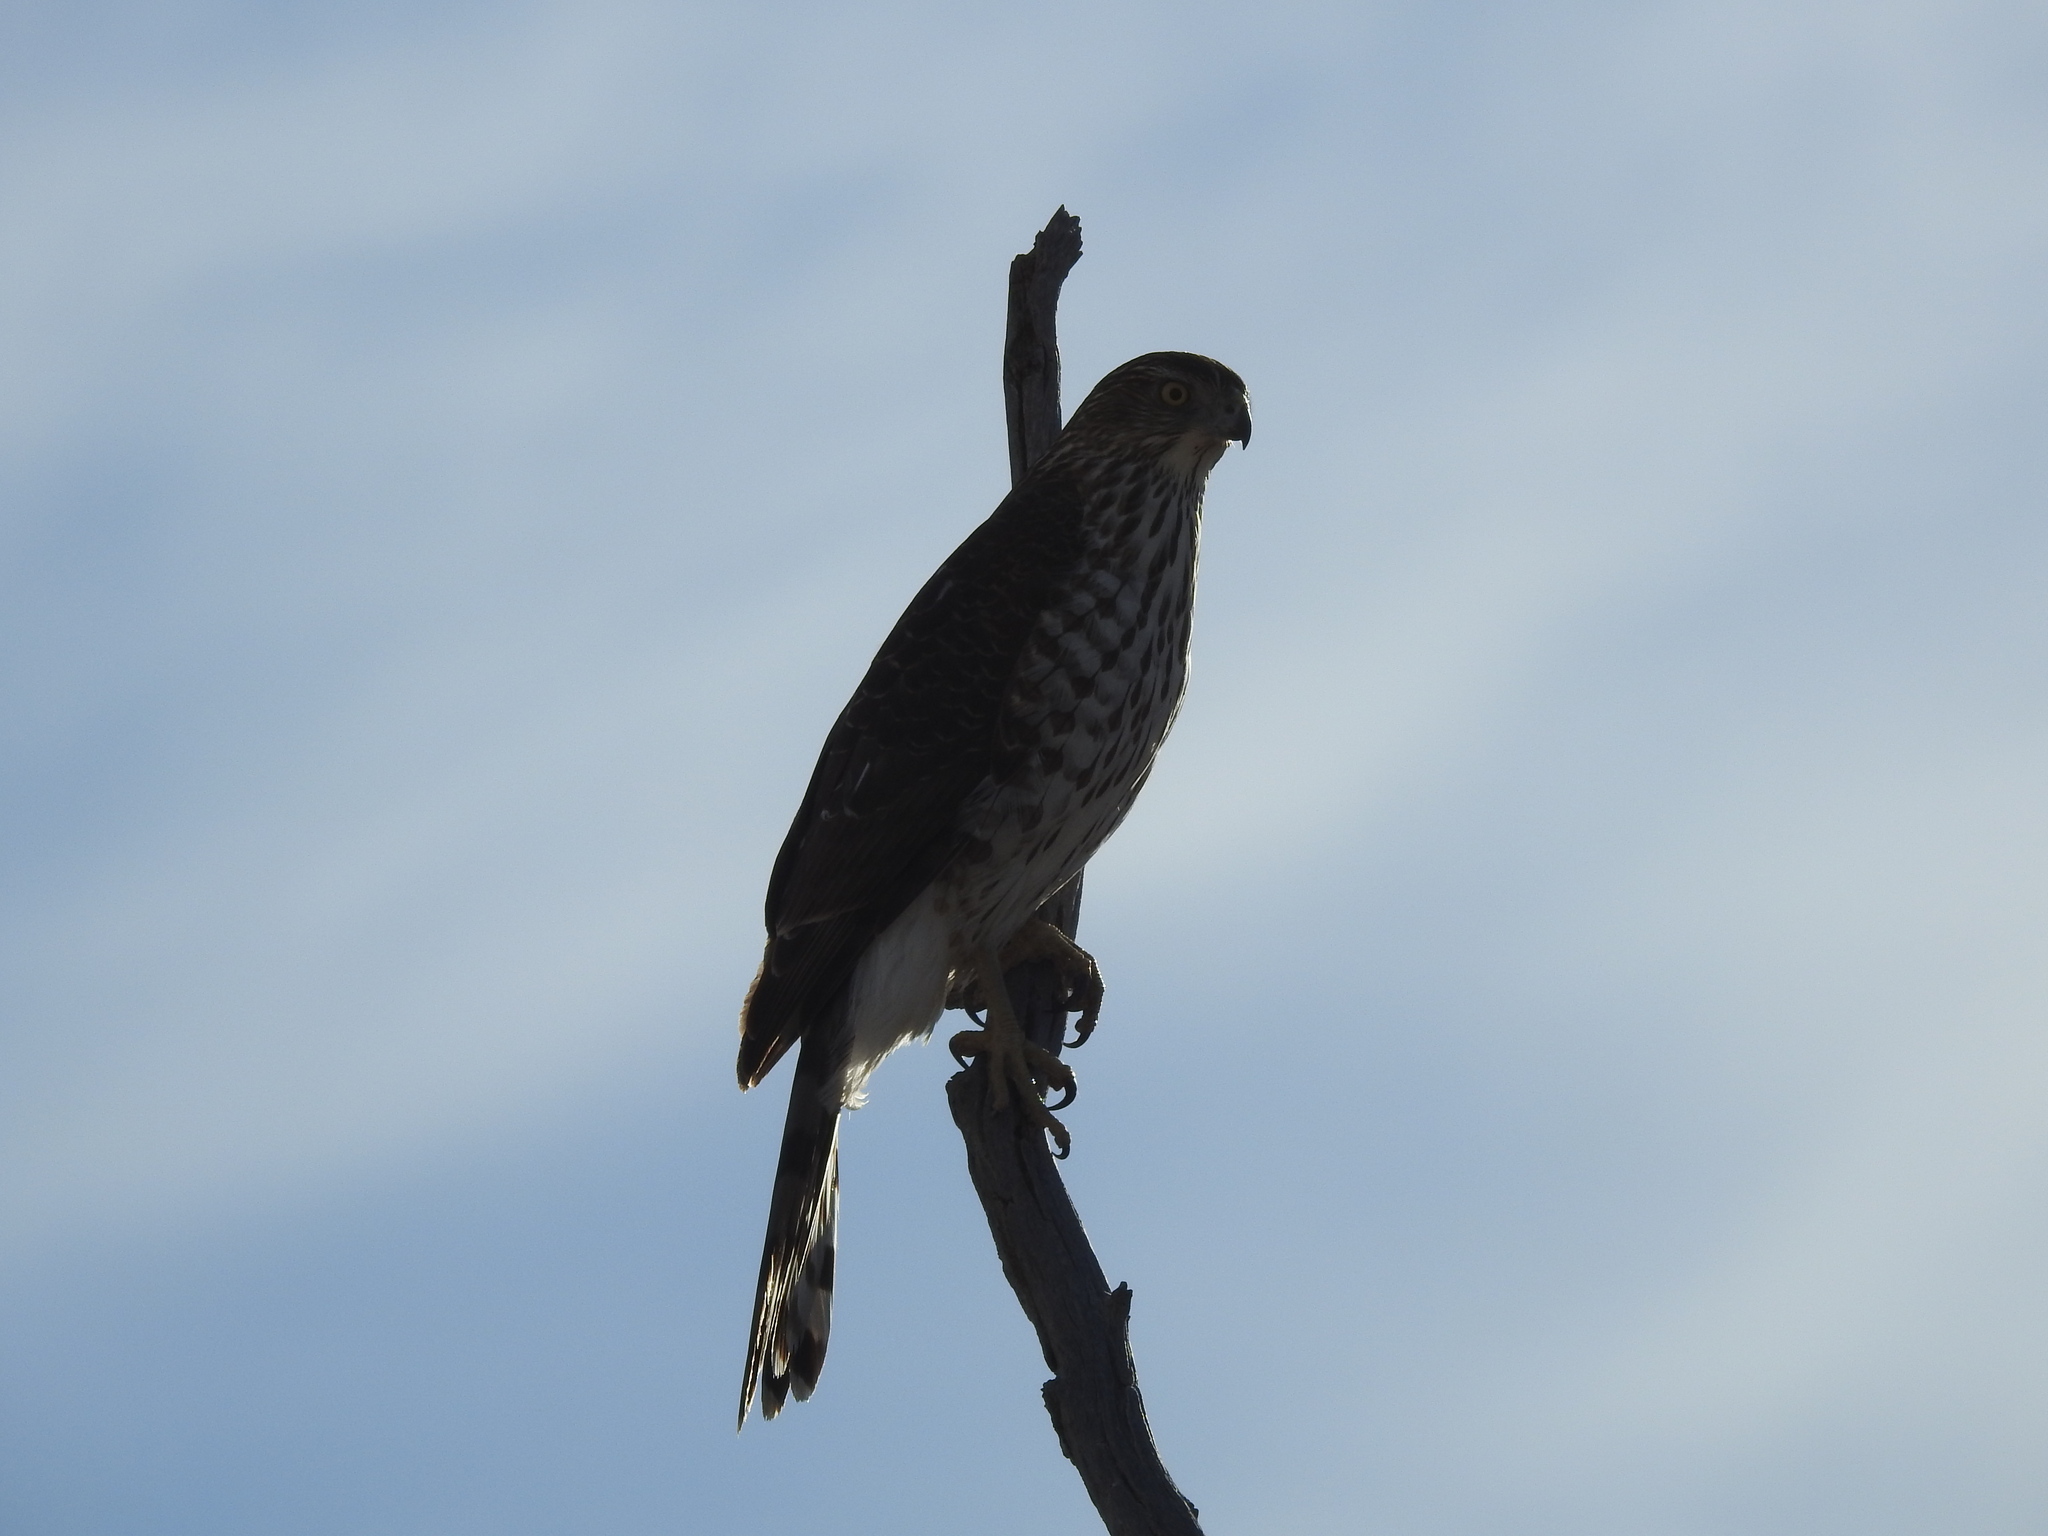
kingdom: Animalia
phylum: Chordata
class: Aves
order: Accipitriformes
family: Accipitridae
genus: Accipiter
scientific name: Accipiter cooperii
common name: Cooper's hawk
